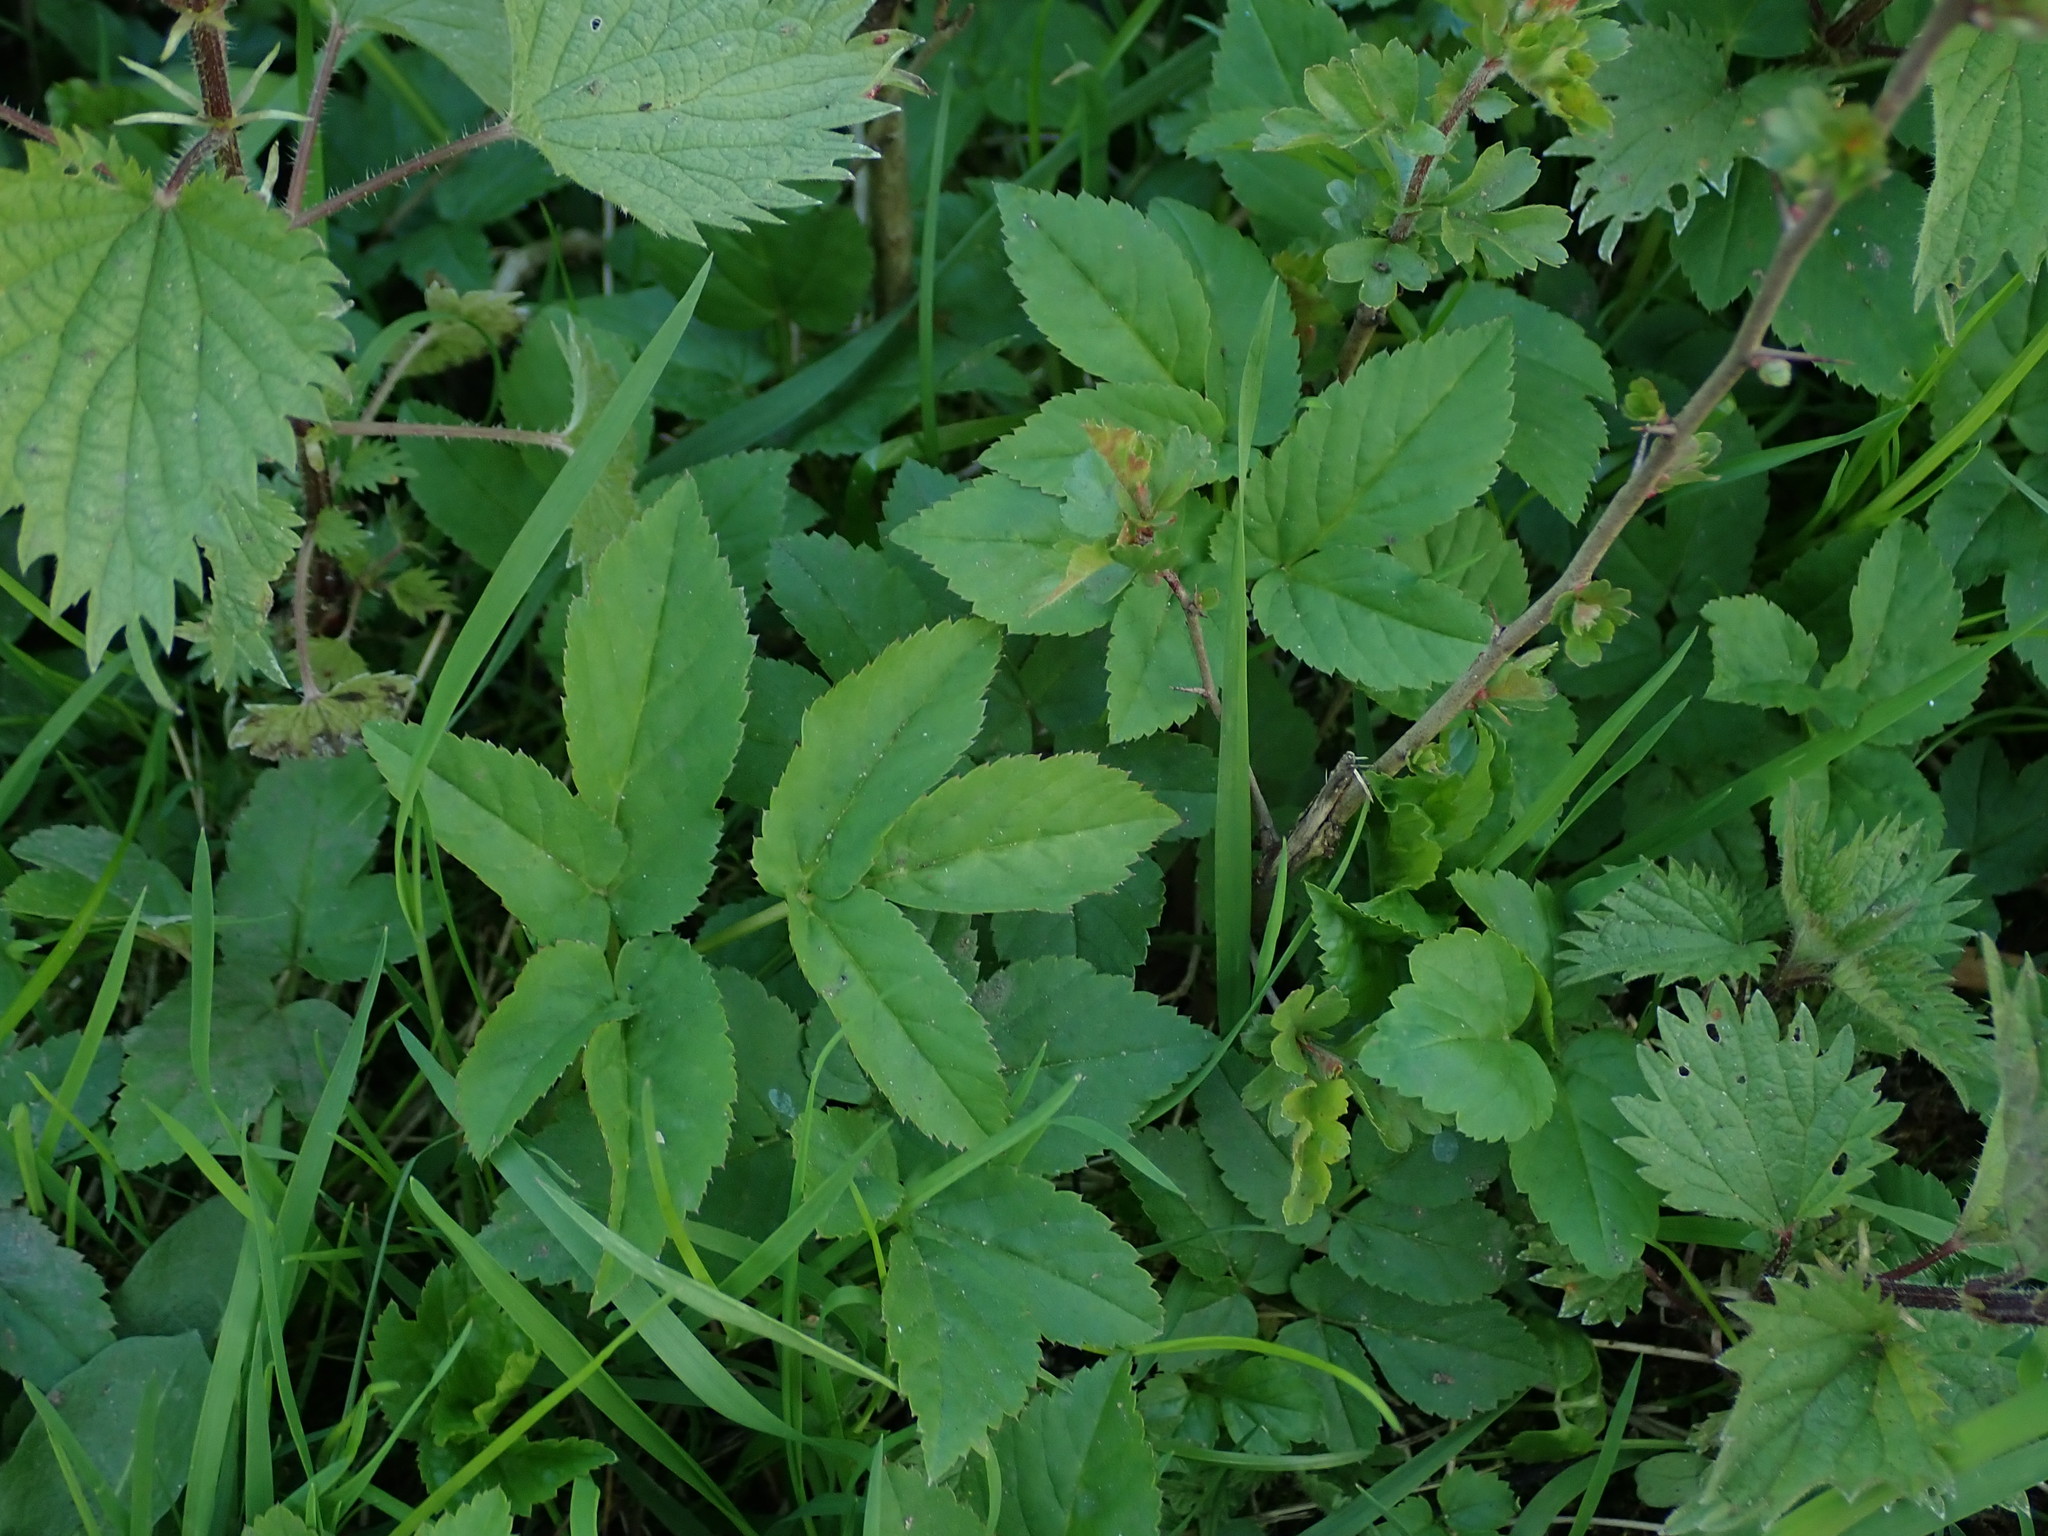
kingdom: Plantae
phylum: Tracheophyta
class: Magnoliopsida
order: Apiales
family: Apiaceae
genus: Aegopodium
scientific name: Aegopodium podagraria
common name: Ground-elder
